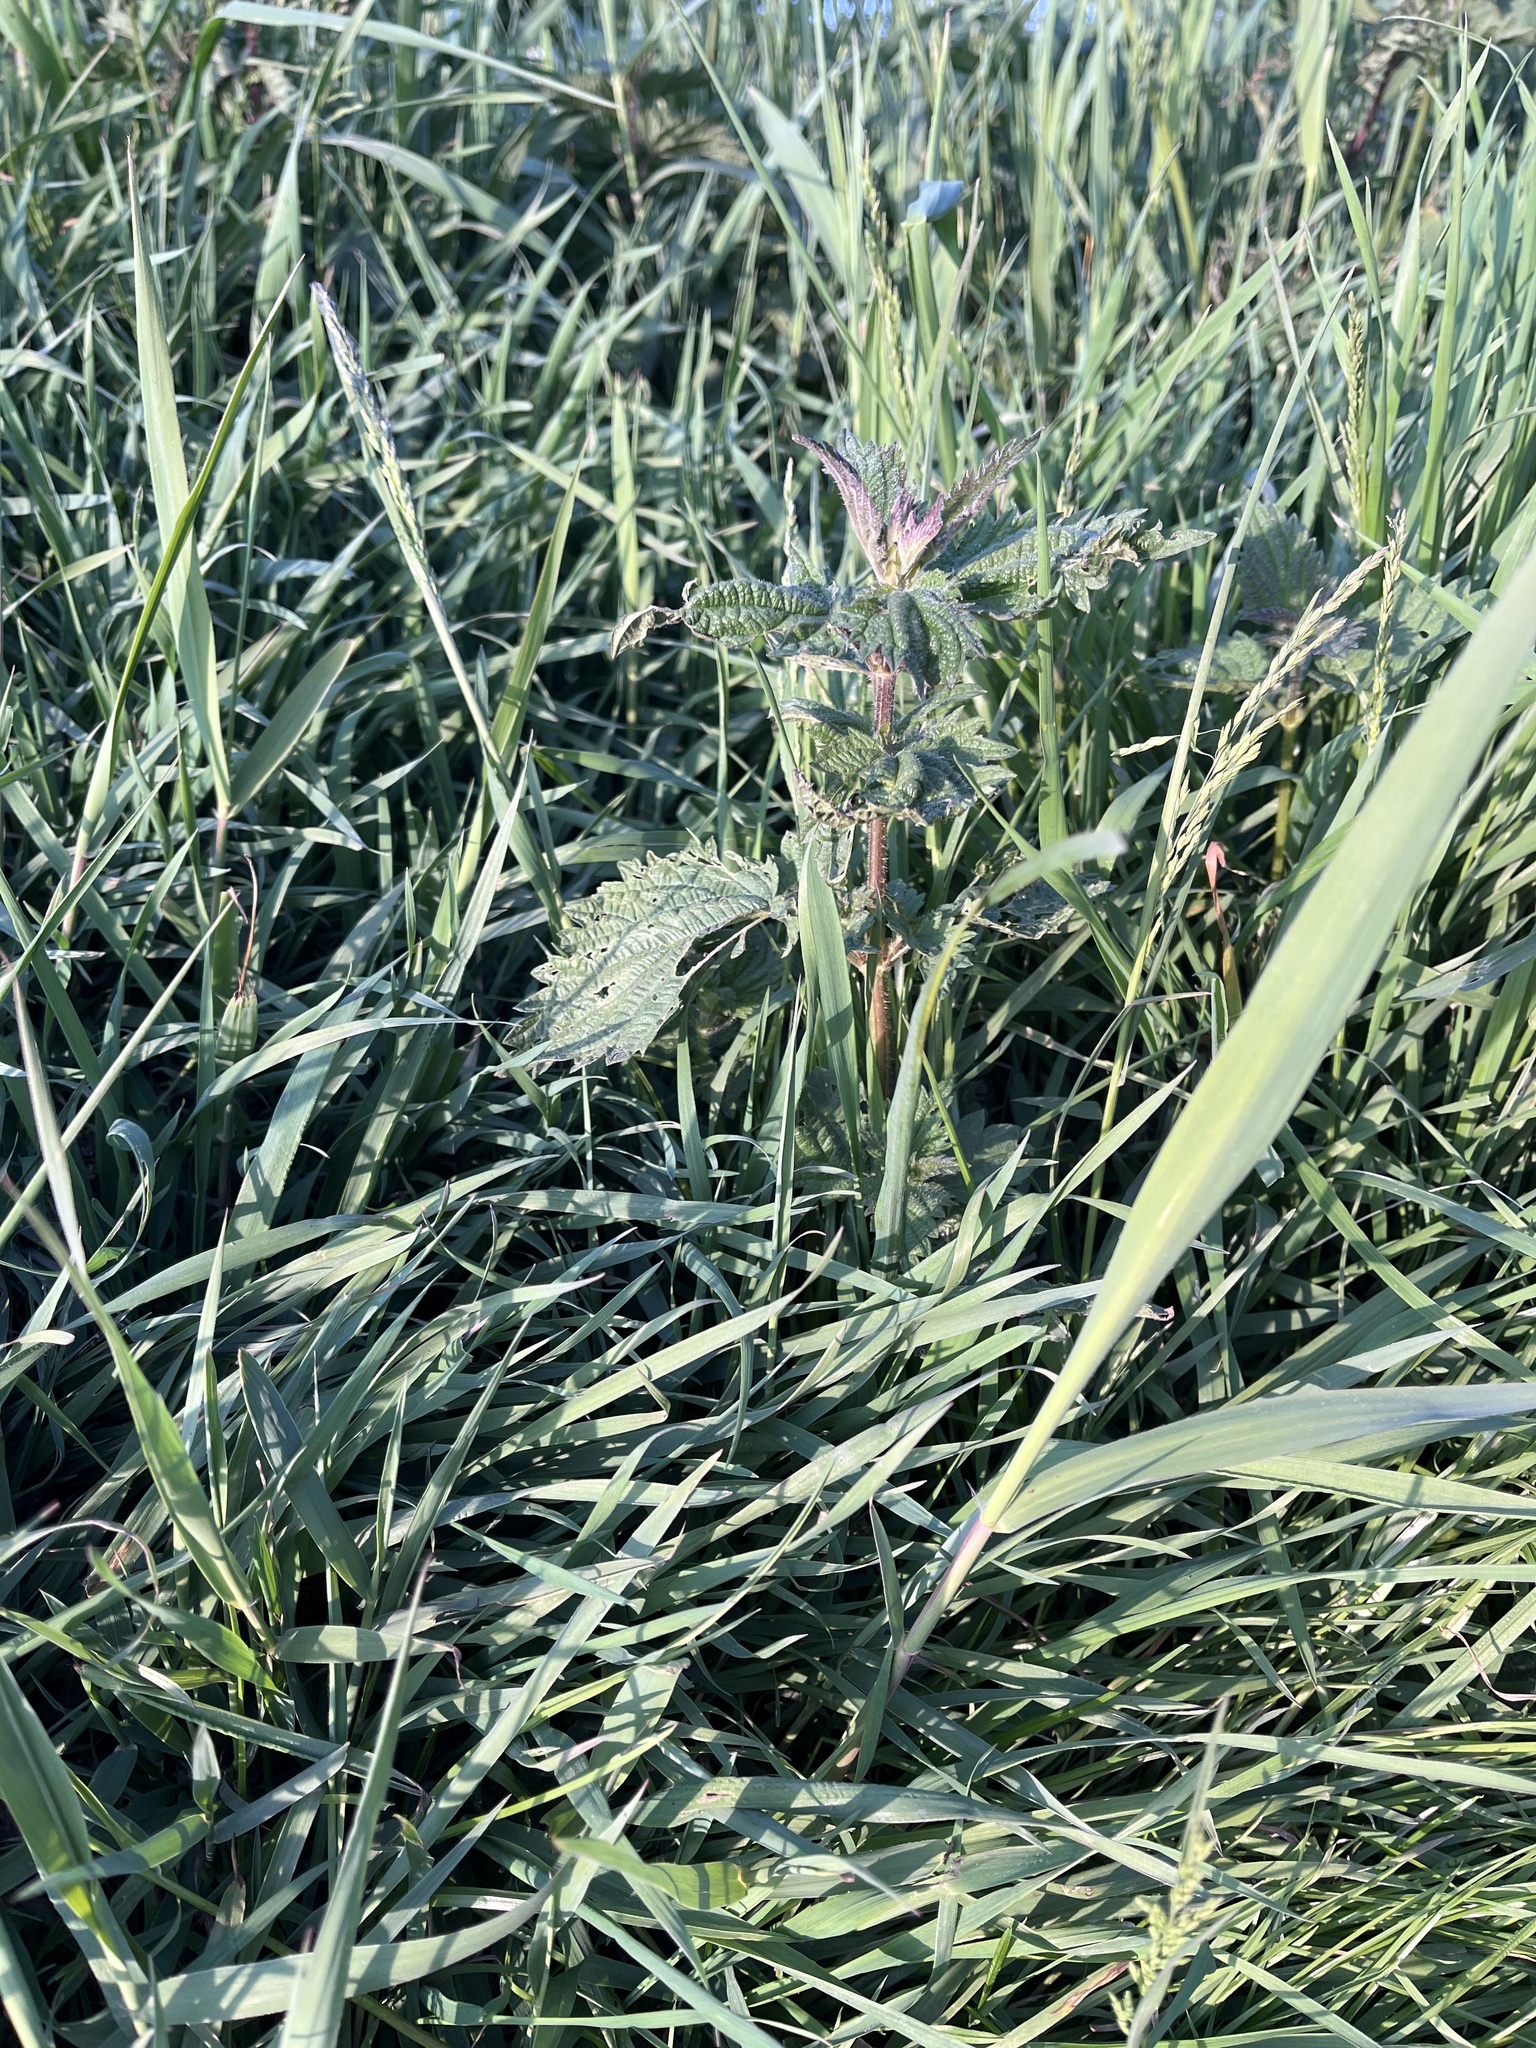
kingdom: Plantae
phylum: Tracheophyta
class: Magnoliopsida
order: Rosales
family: Urticaceae
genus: Urtica
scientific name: Urtica dioica
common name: Common nettle
